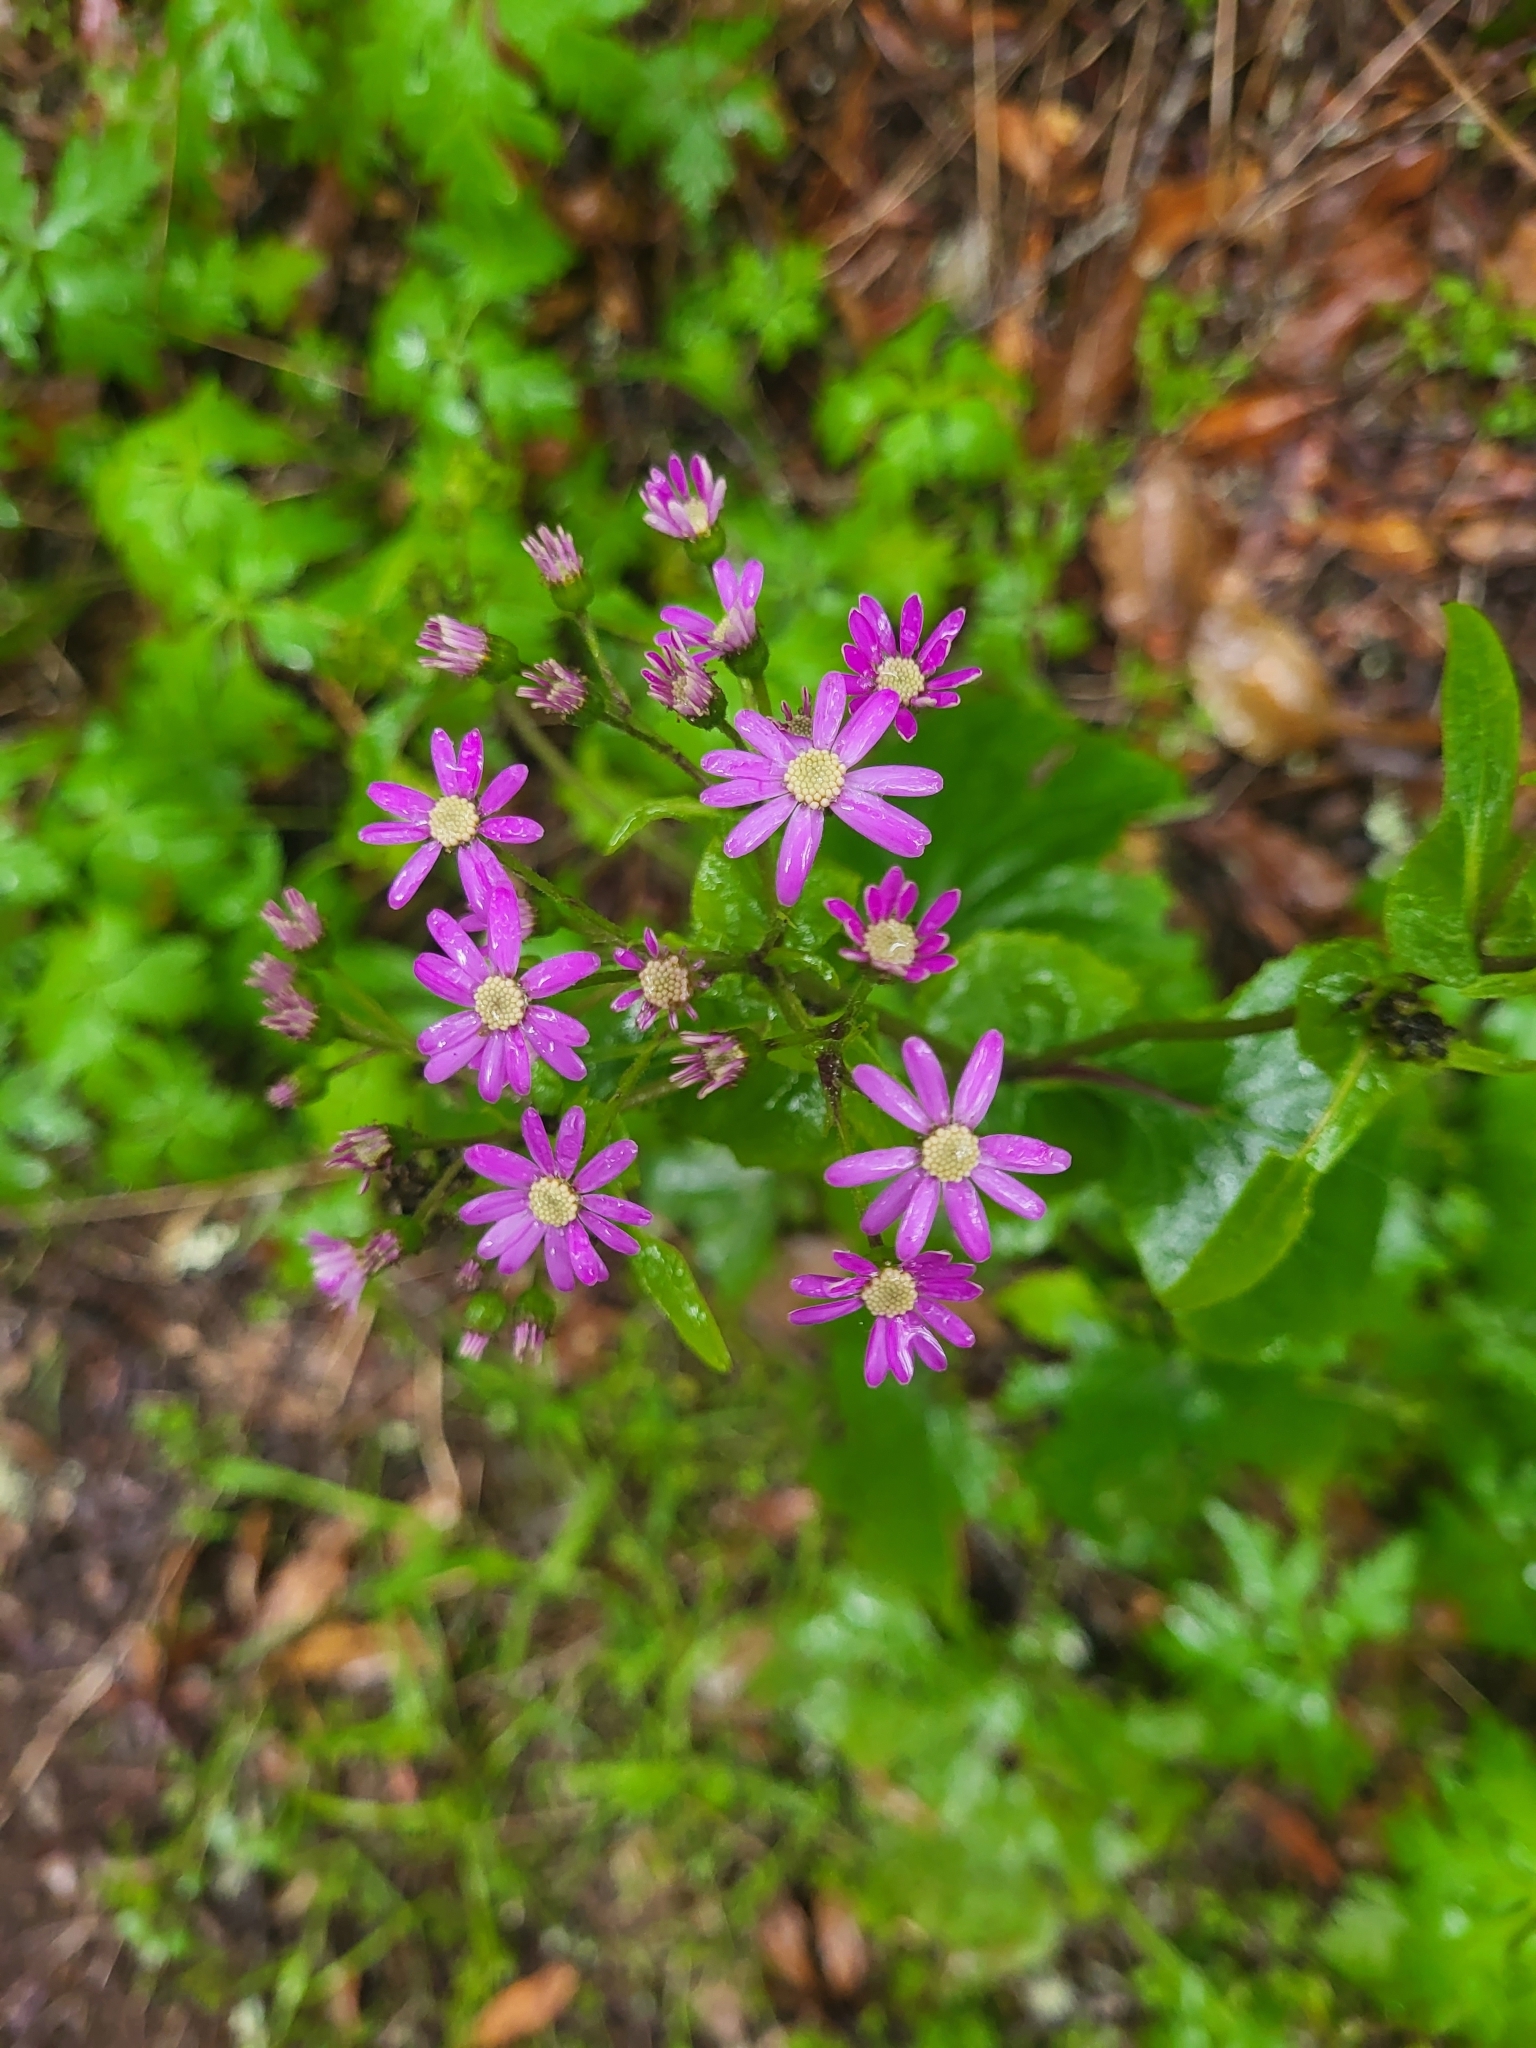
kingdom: Plantae
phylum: Tracheophyta
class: Magnoliopsida
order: Asterales
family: Asteraceae
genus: Pericallis
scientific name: Pericallis steetzii
